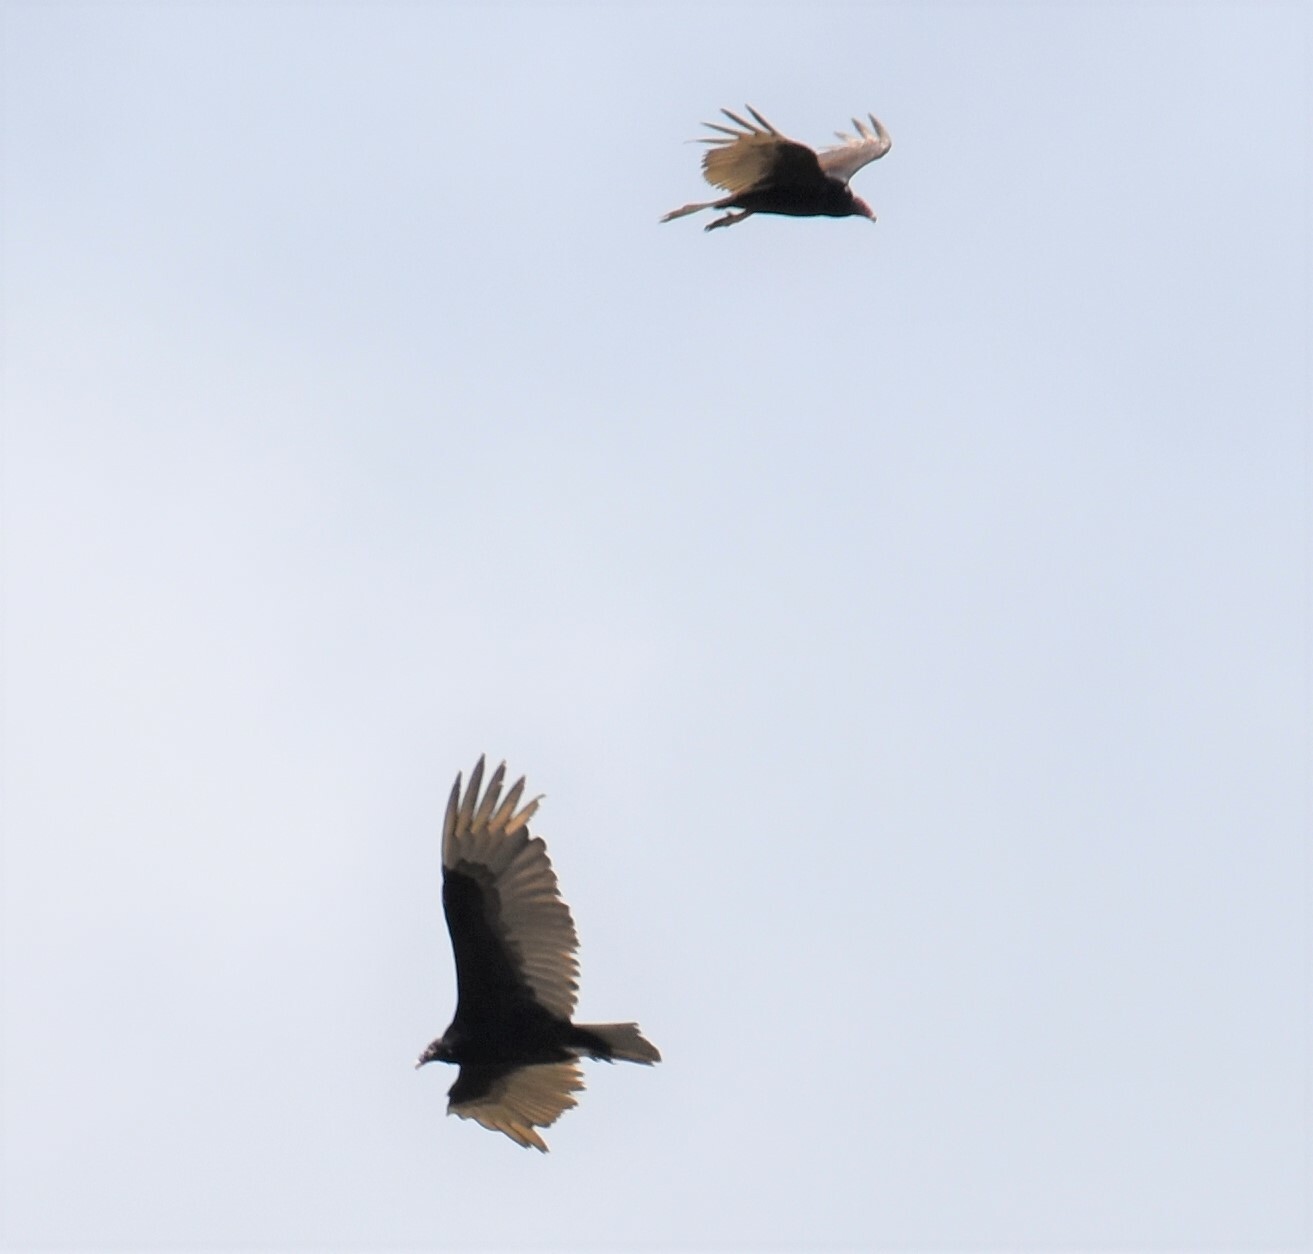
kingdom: Animalia
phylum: Chordata
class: Aves
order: Accipitriformes
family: Cathartidae
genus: Cathartes
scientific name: Cathartes aura
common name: Turkey vulture
